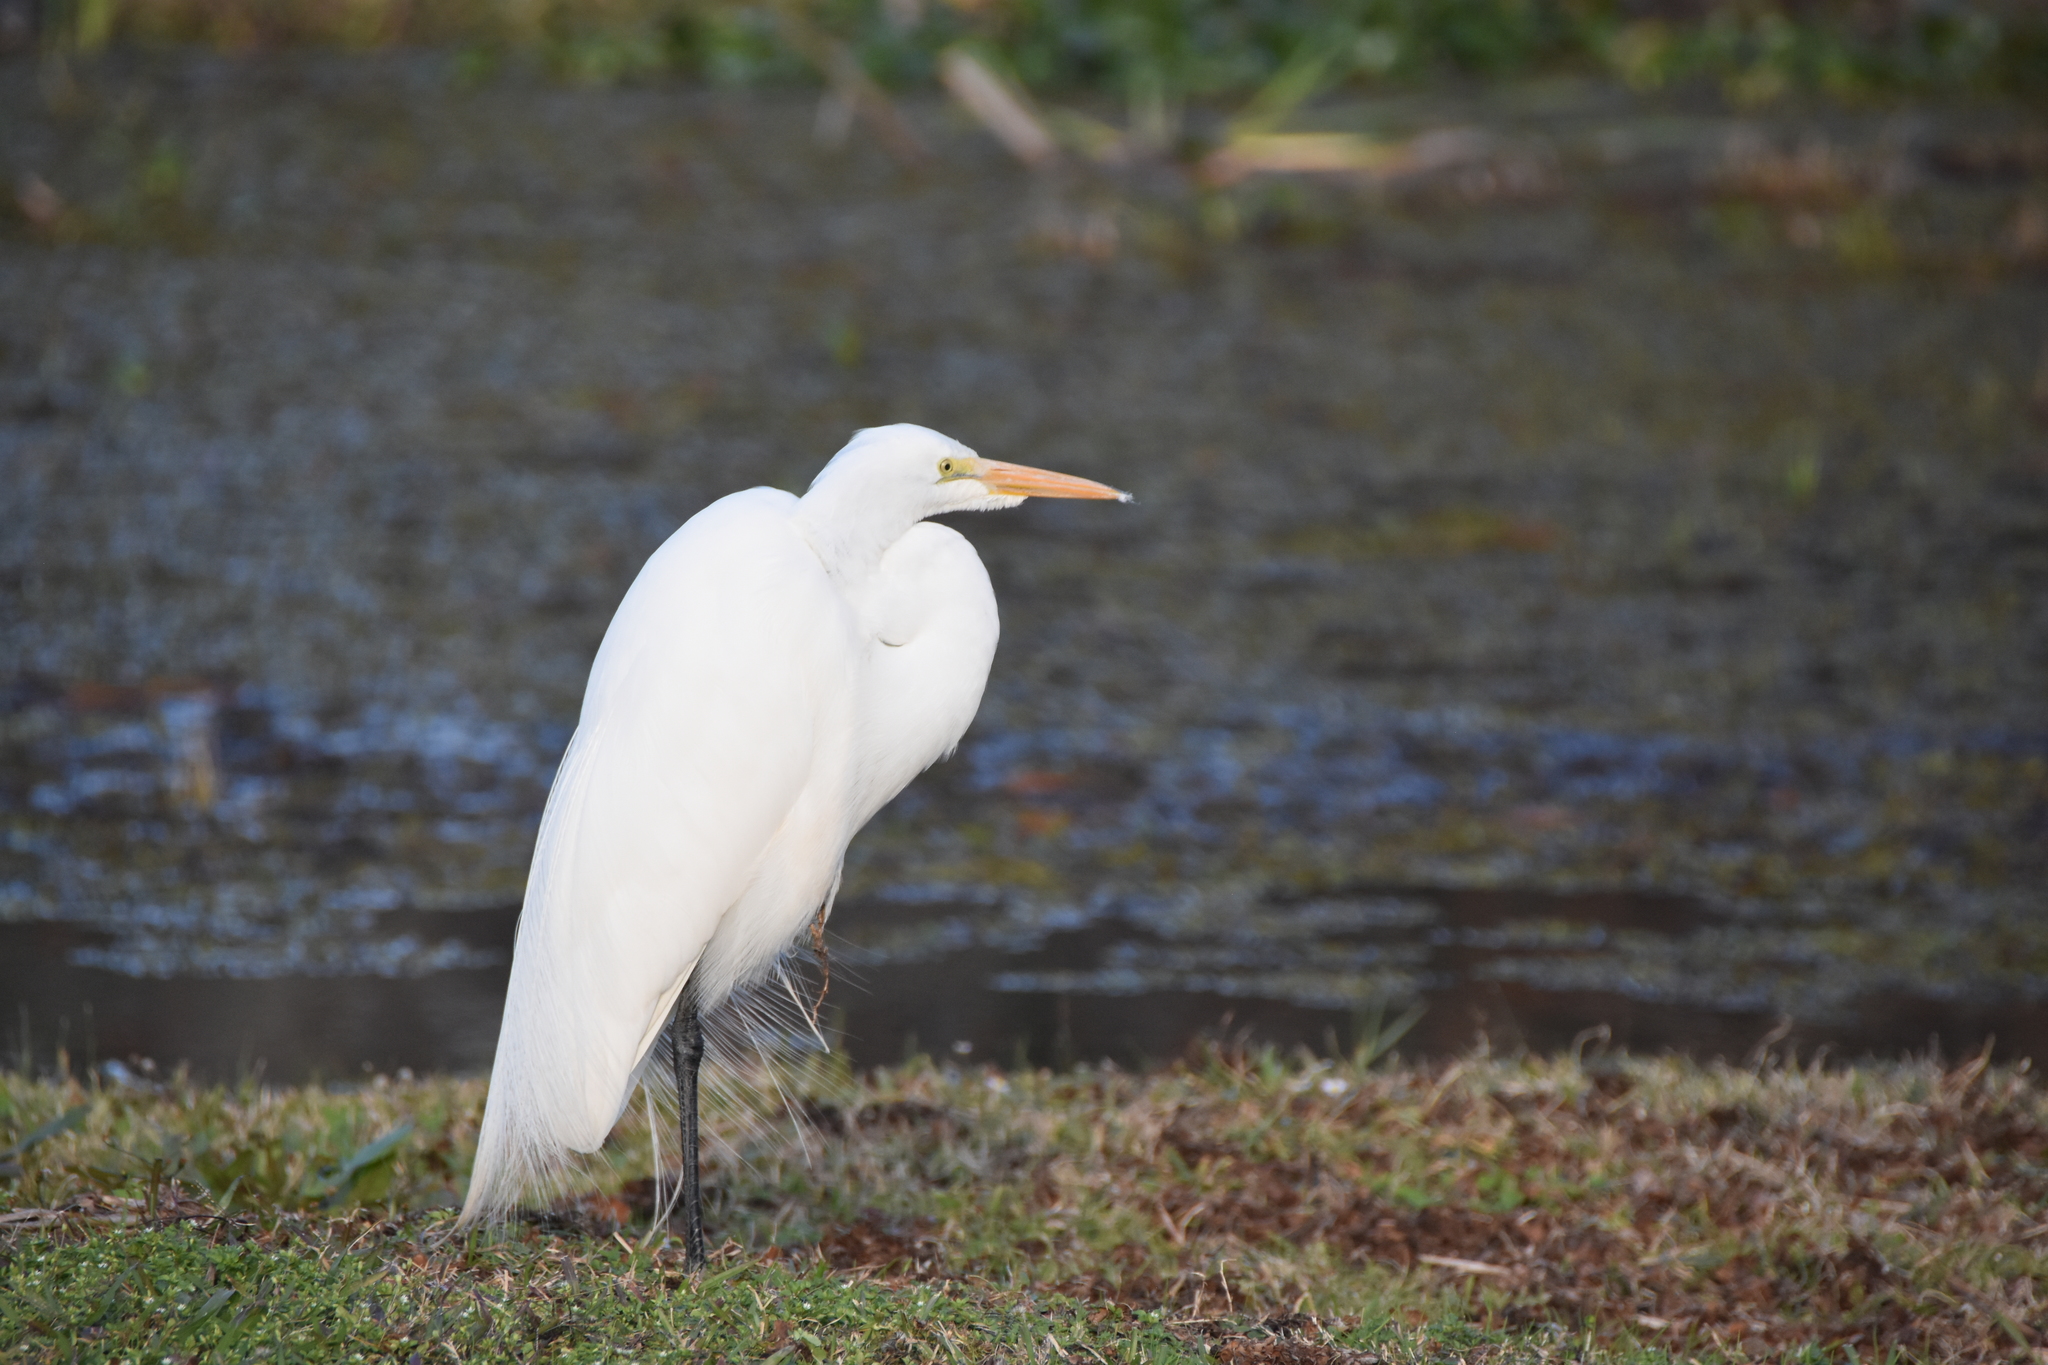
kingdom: Animalia
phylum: Chordata
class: Aves
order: Pelecaniformes
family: Ardeidae
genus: Ardea
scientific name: Ardea alba
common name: Great egret
